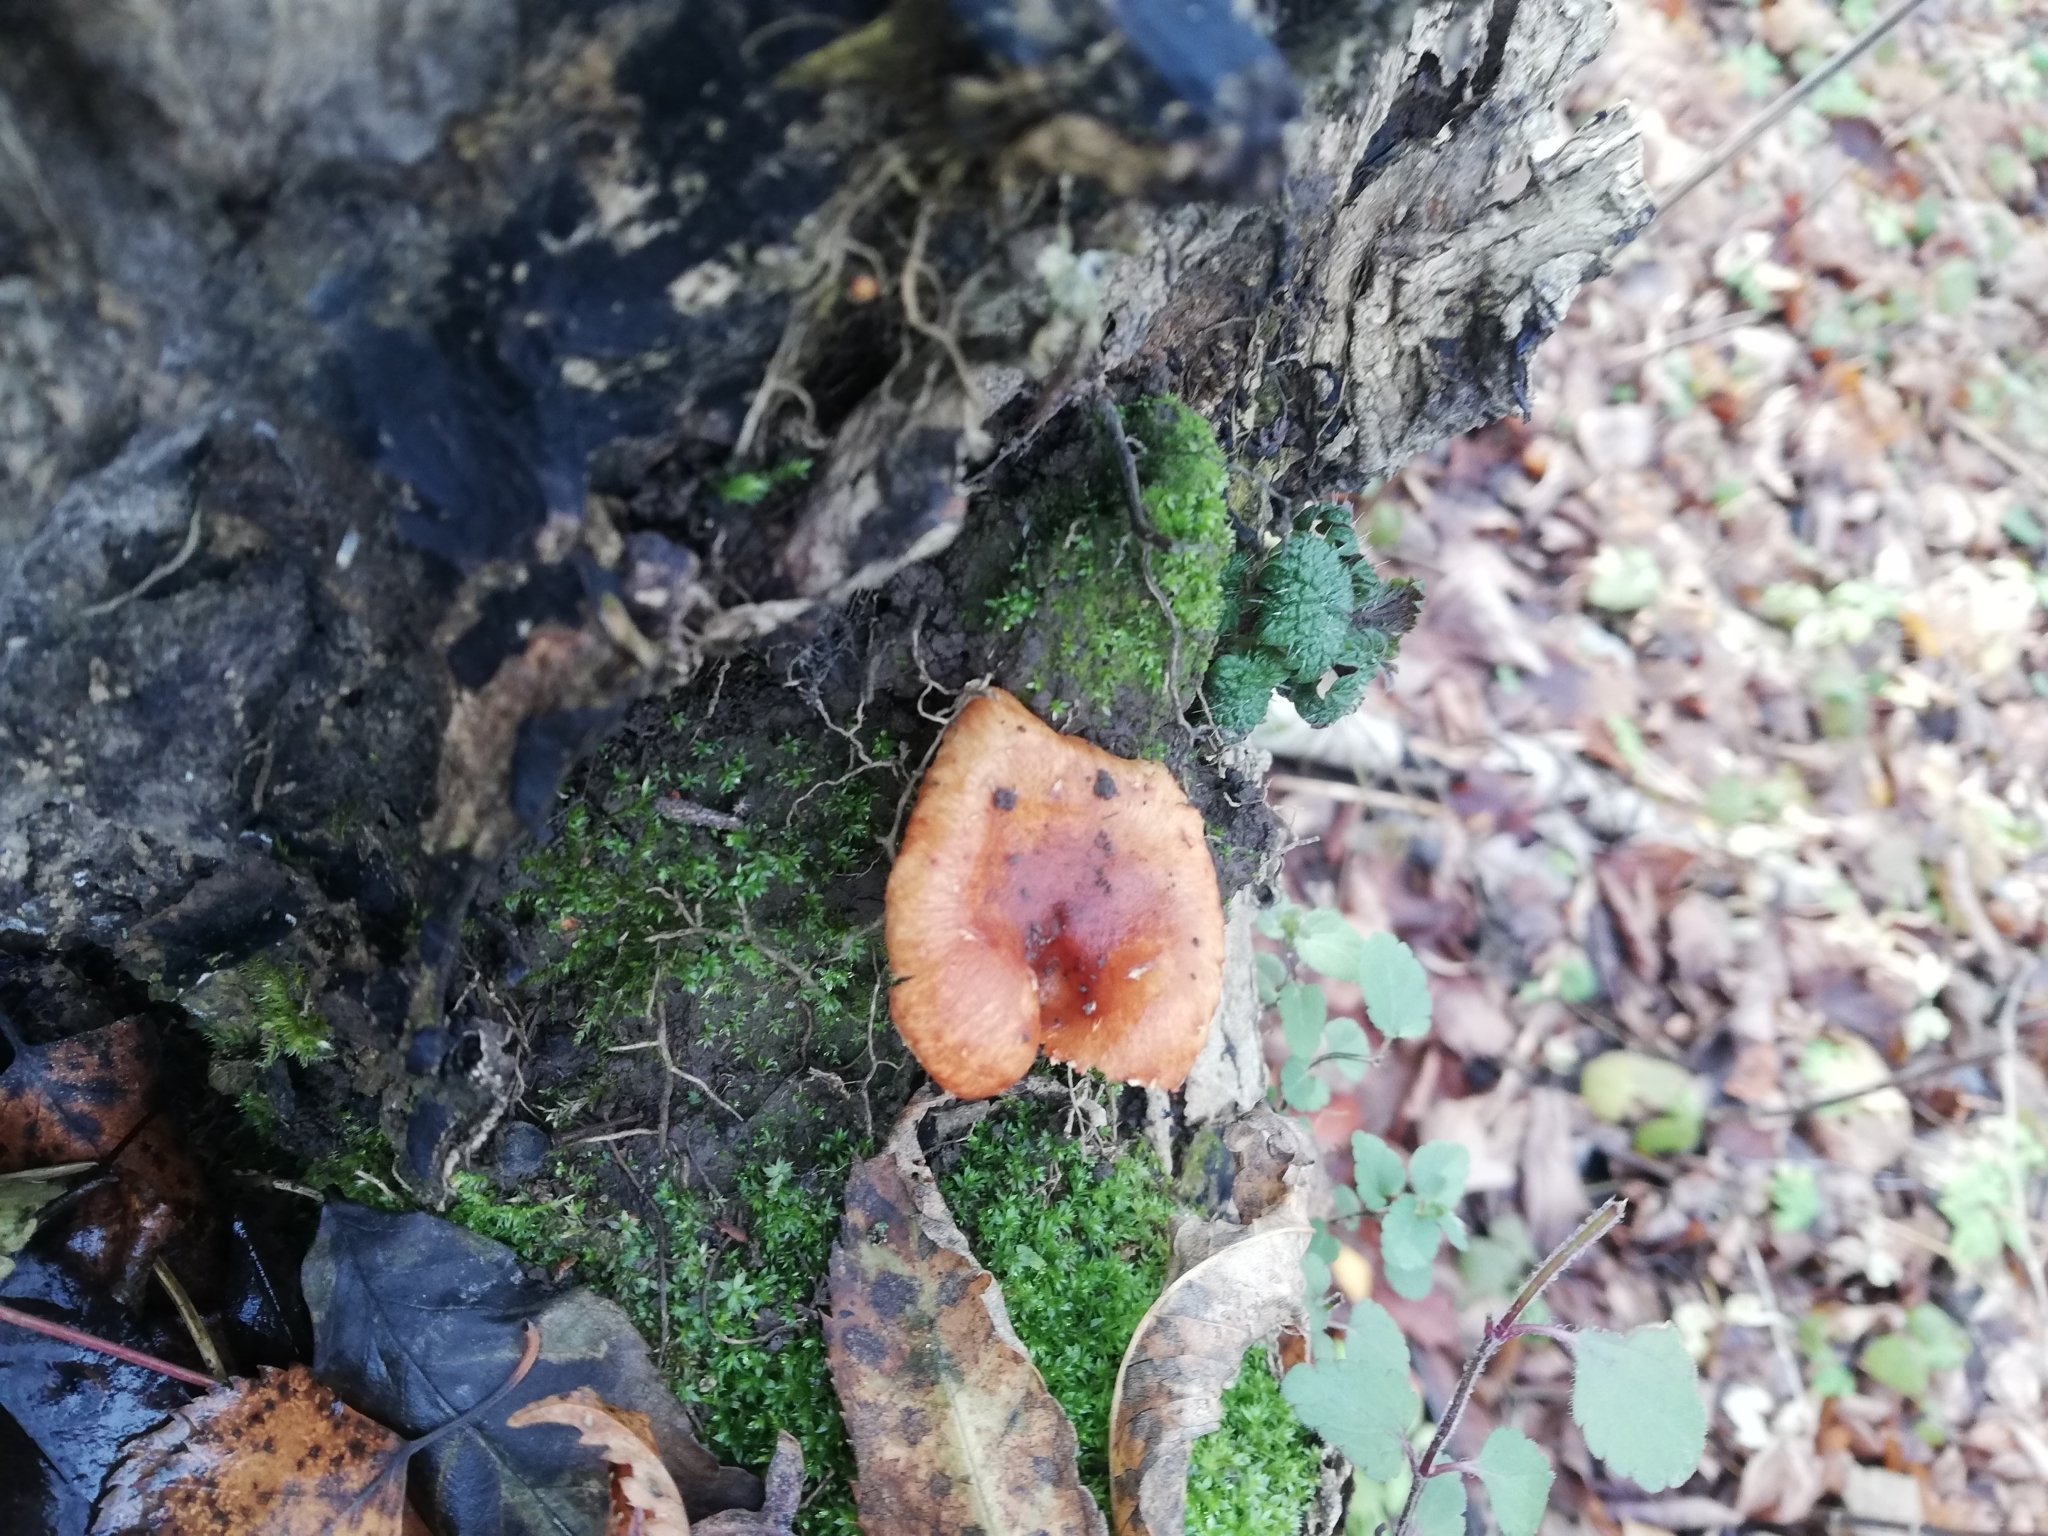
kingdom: Fungi
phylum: Basidiomycota
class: Agaricomycetes
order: Agaricales
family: Strophariaceae
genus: Hypholoma
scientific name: Hypholoma lateritium
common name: Brick caps
